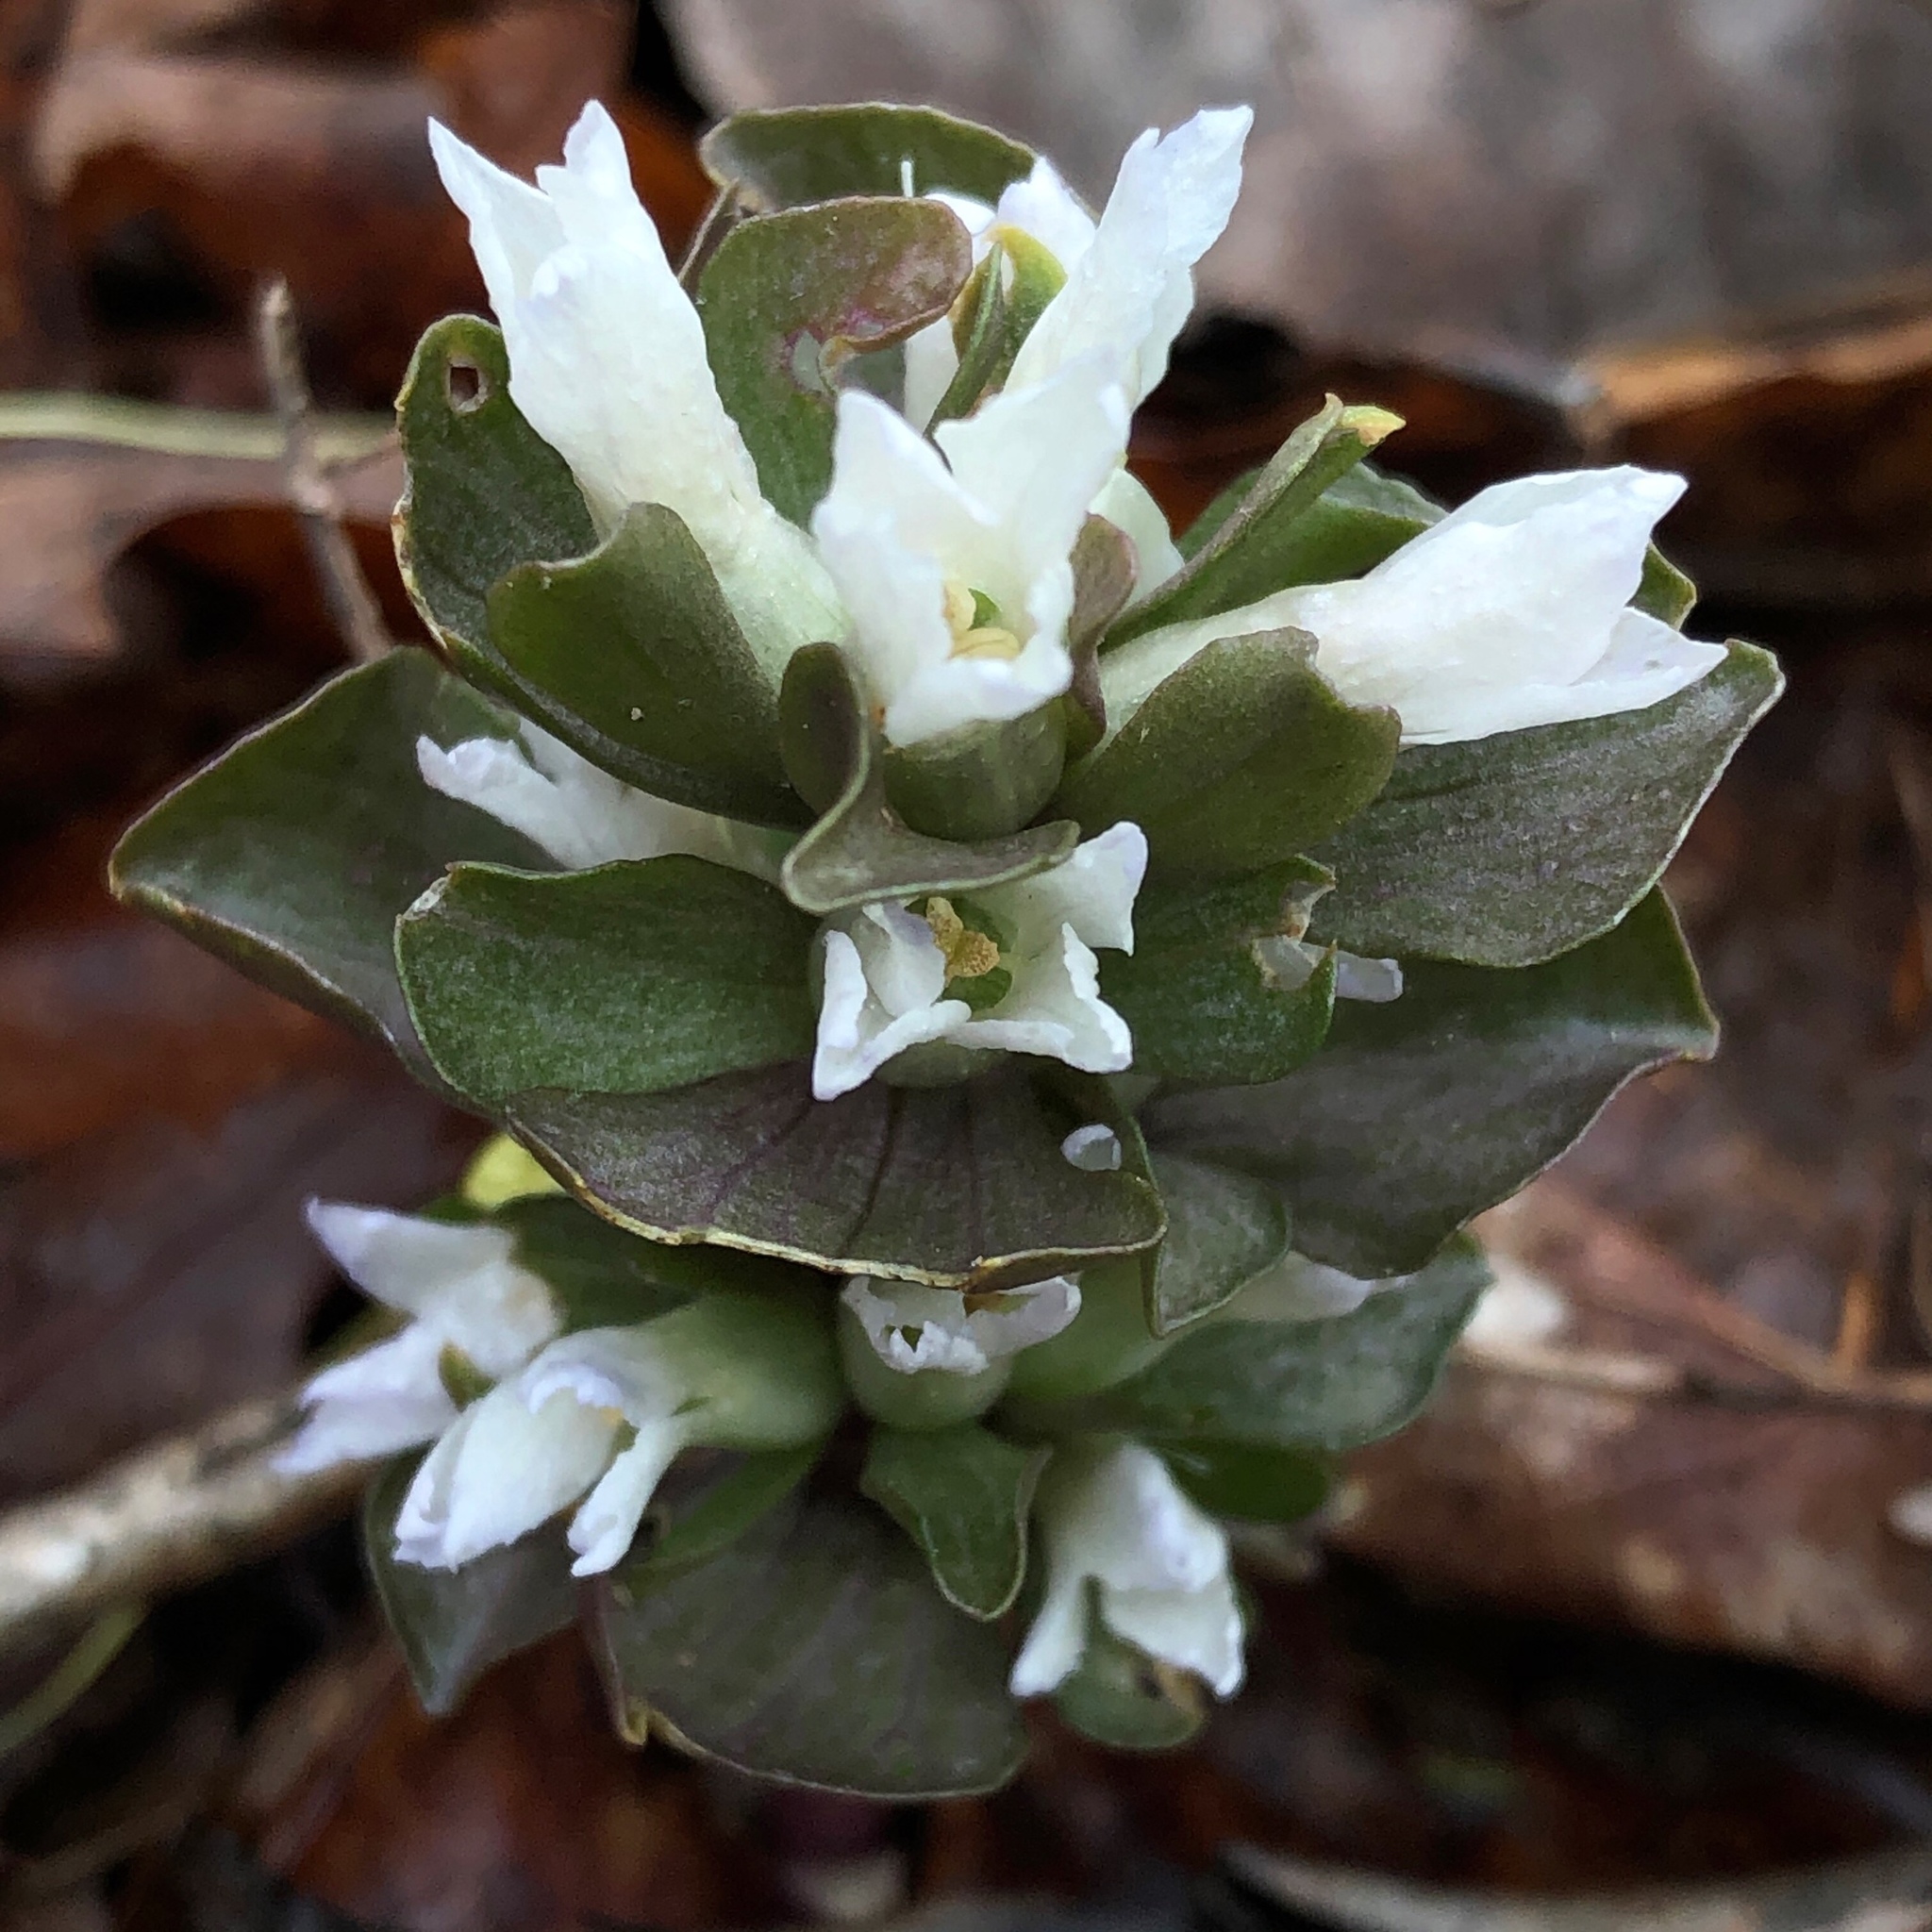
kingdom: Plantae
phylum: Tracheophyta
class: Magnoliopsida
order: Gentianales
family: Gentianaceae
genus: Obolaria
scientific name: Obolaria virginica
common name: Pennywort
